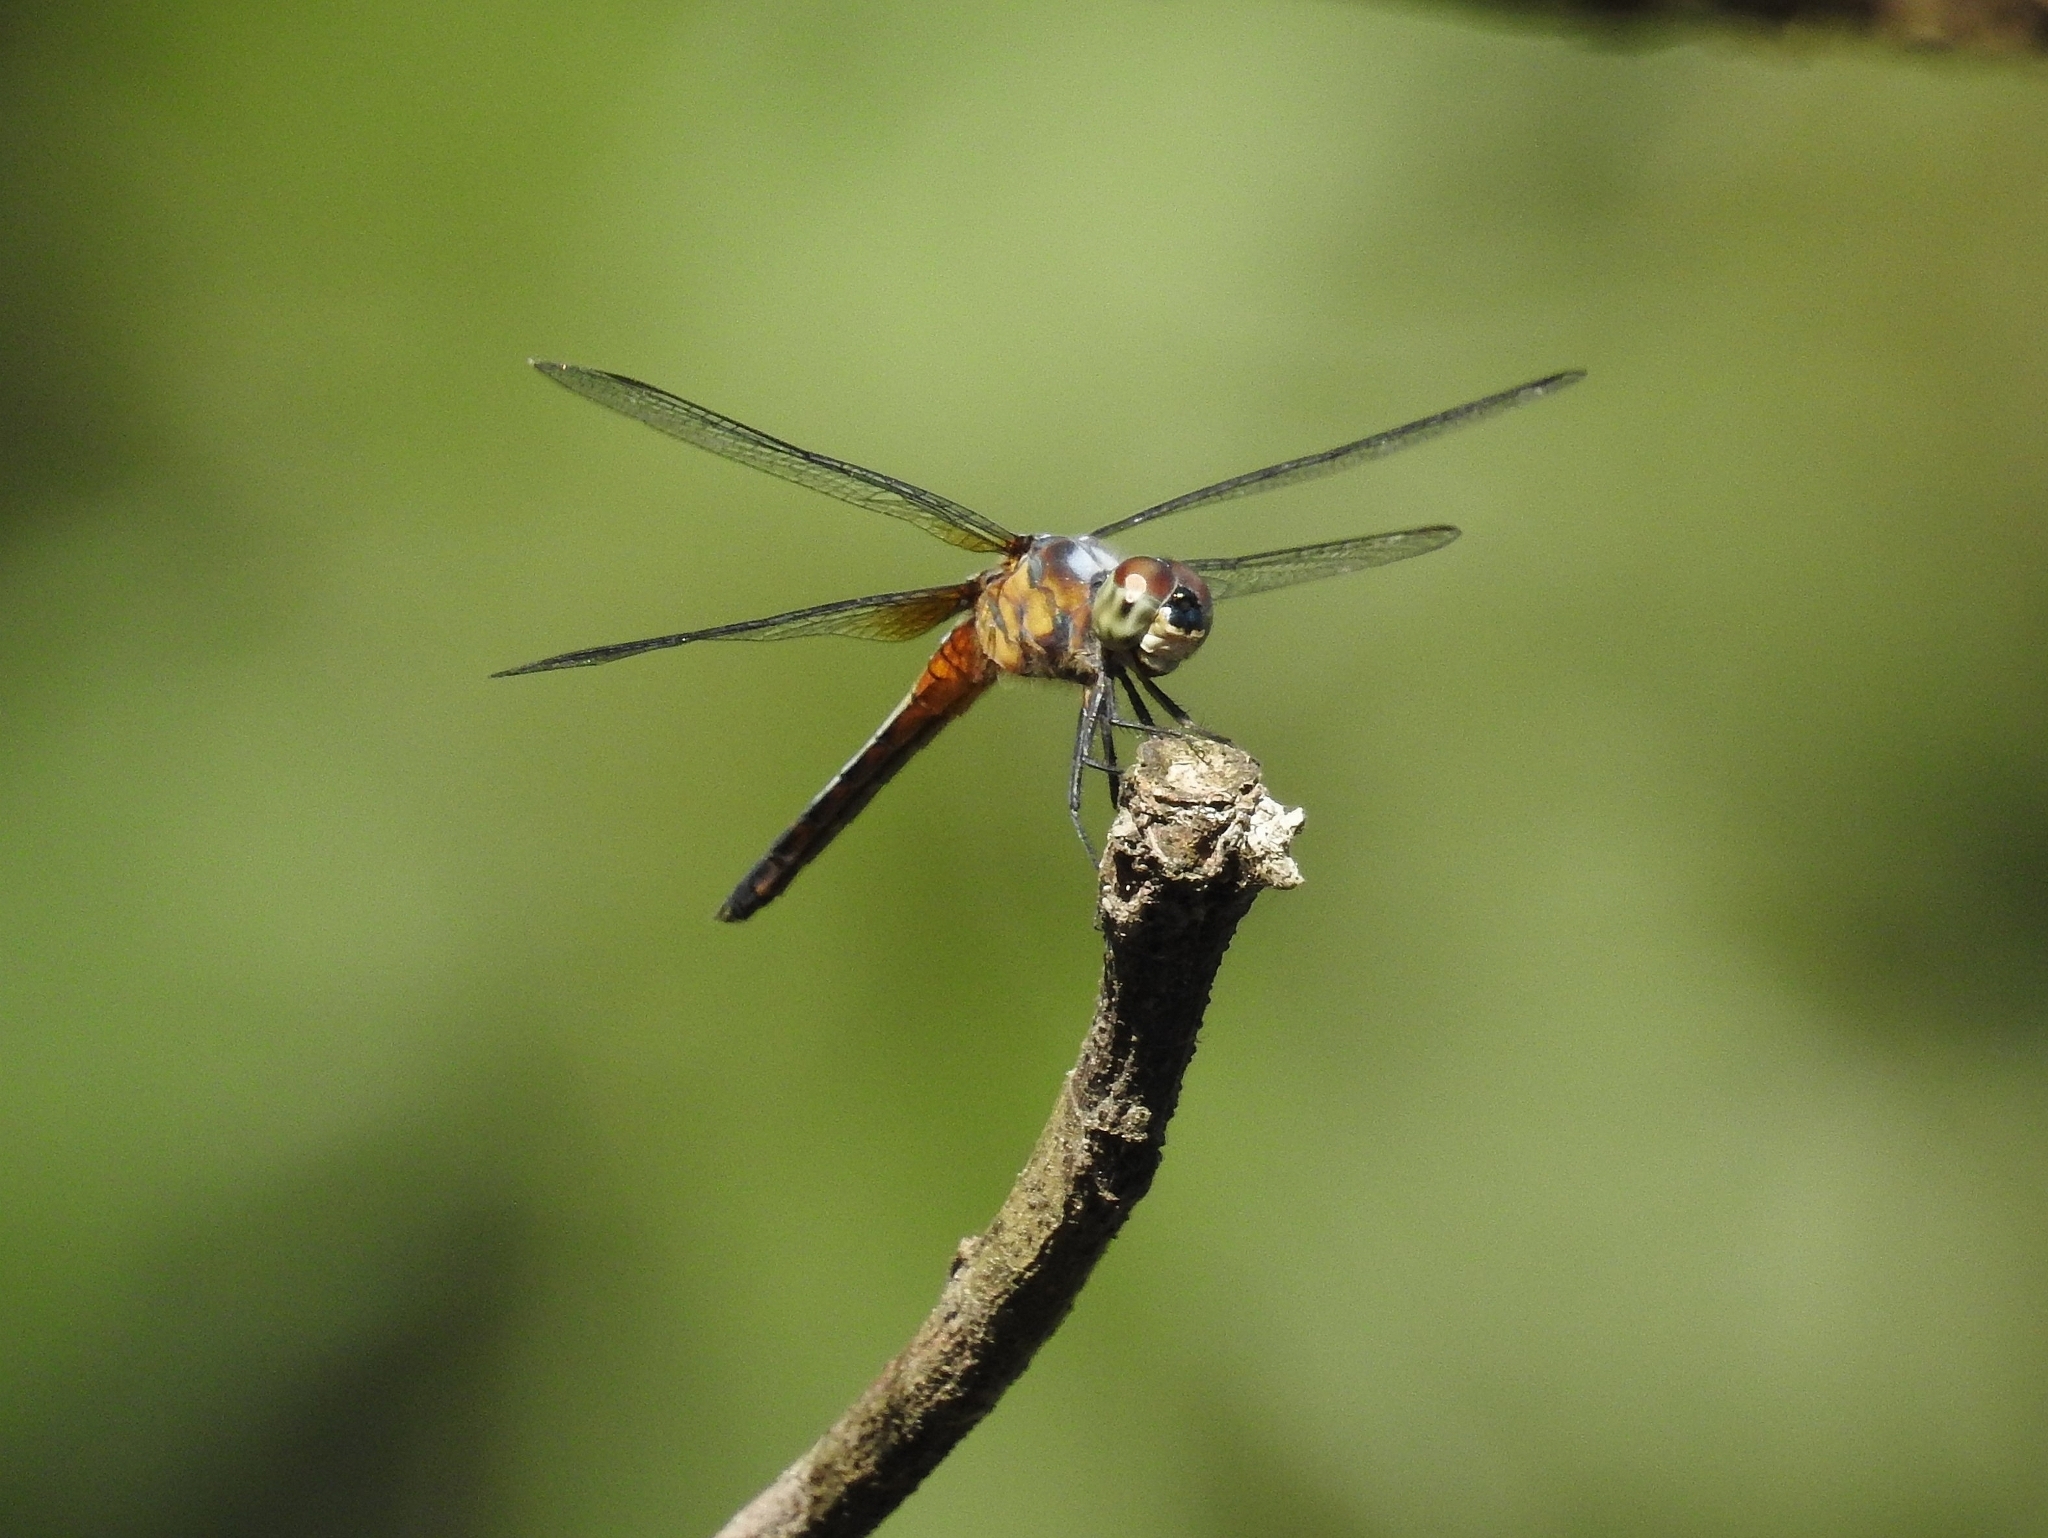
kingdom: Animalia
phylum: Arthropoda
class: Insecta
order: Odonata
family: Libellulidae
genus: Brachydiplax
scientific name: Brachydiplax chalybea
